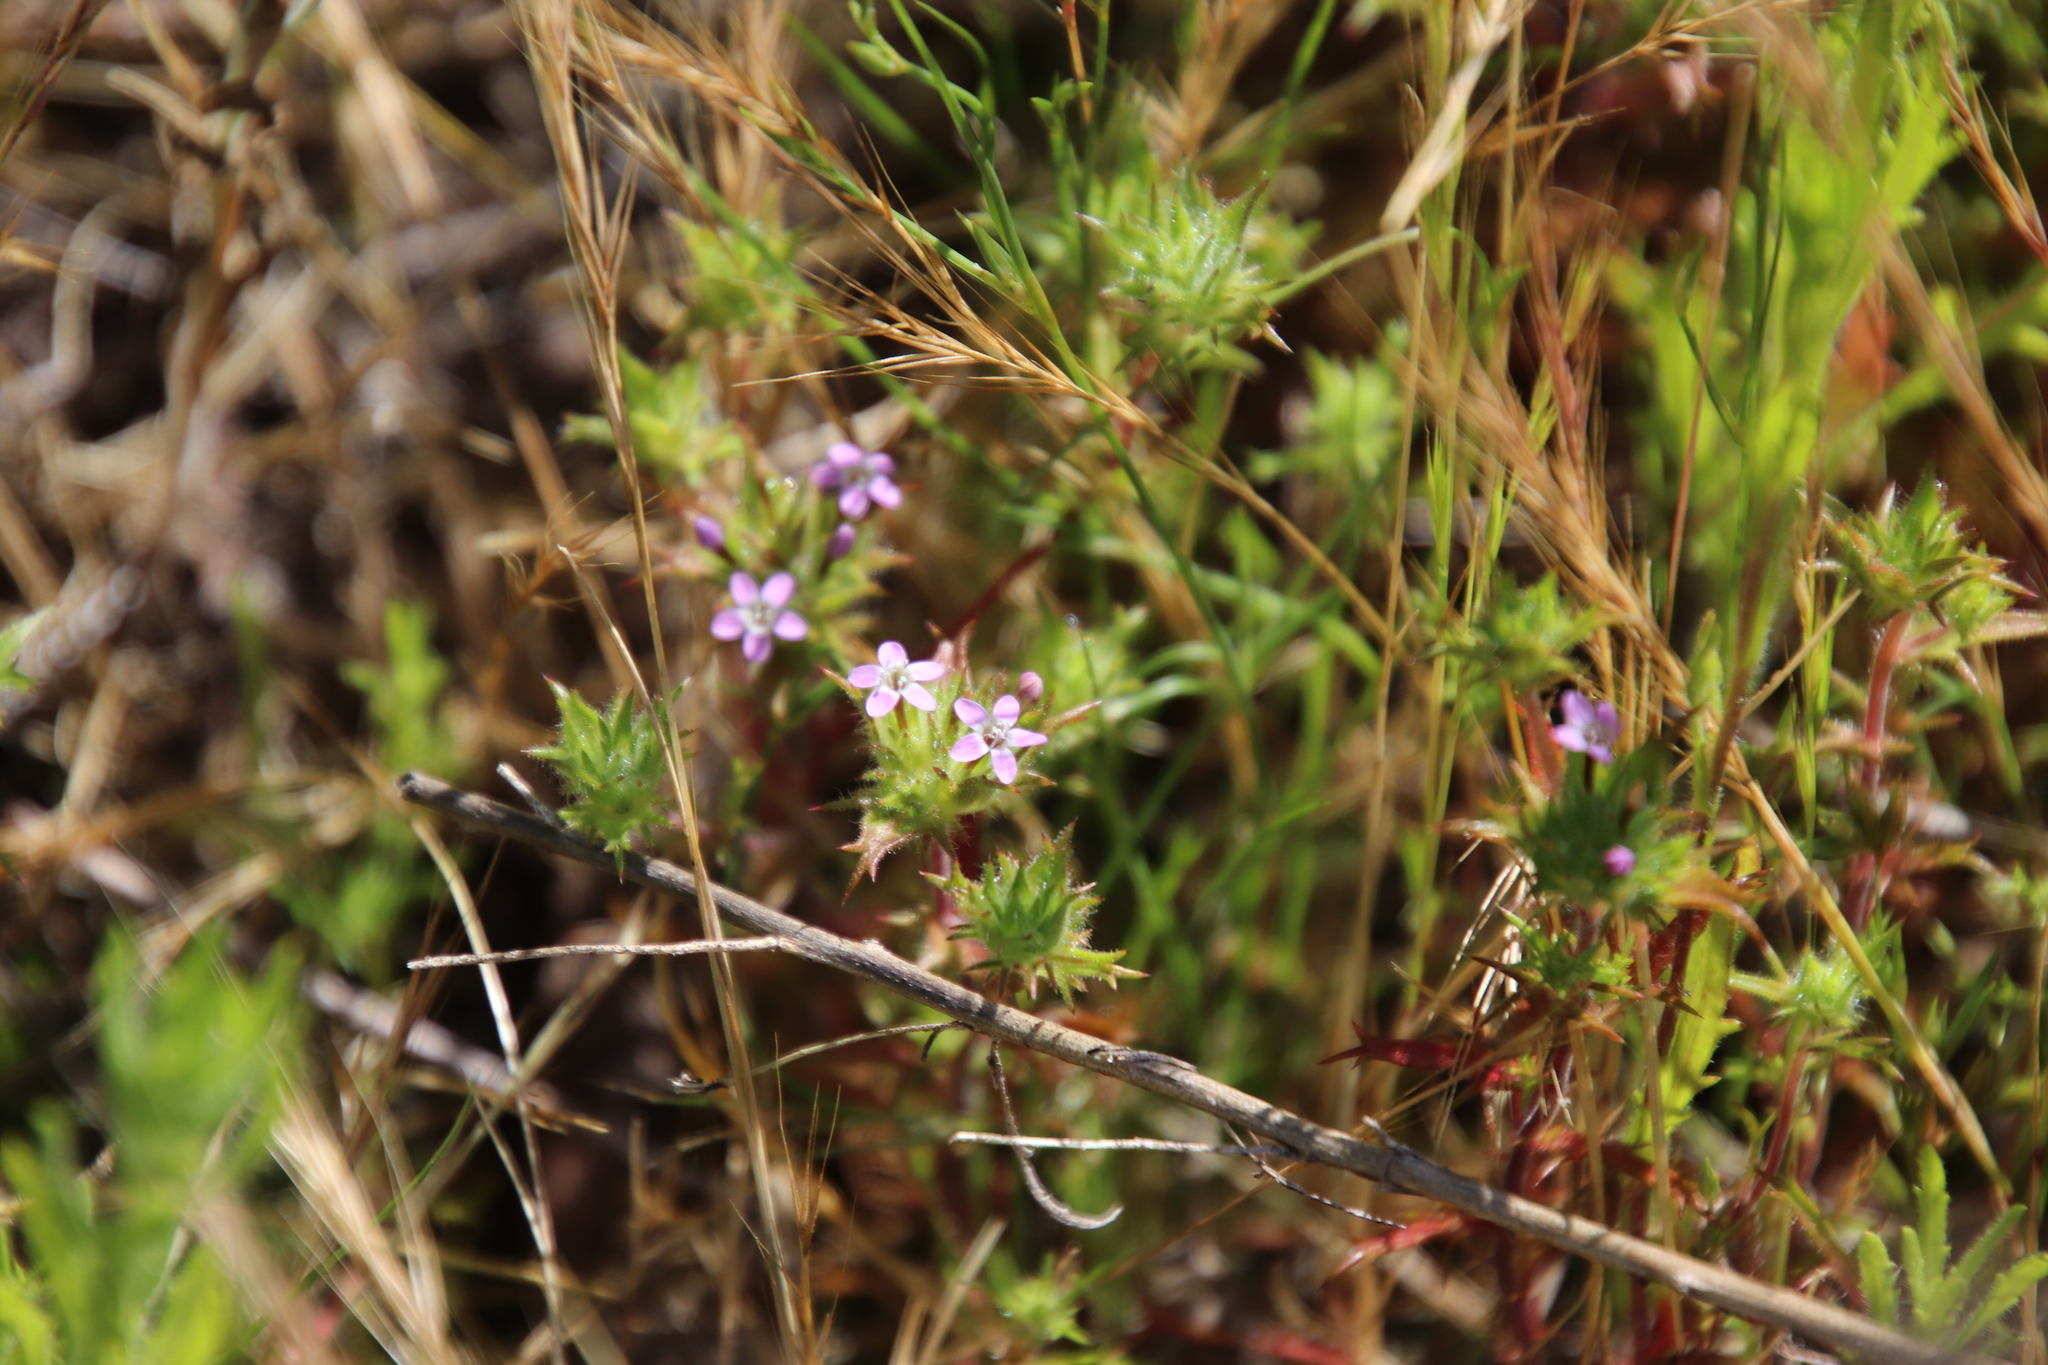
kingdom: Plantae
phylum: Tracheophyta
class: Magnoliopsida
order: Ericales
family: Polemoniaceae
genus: Navarretia
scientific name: Navarretia hamata
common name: Hooked navarretia
